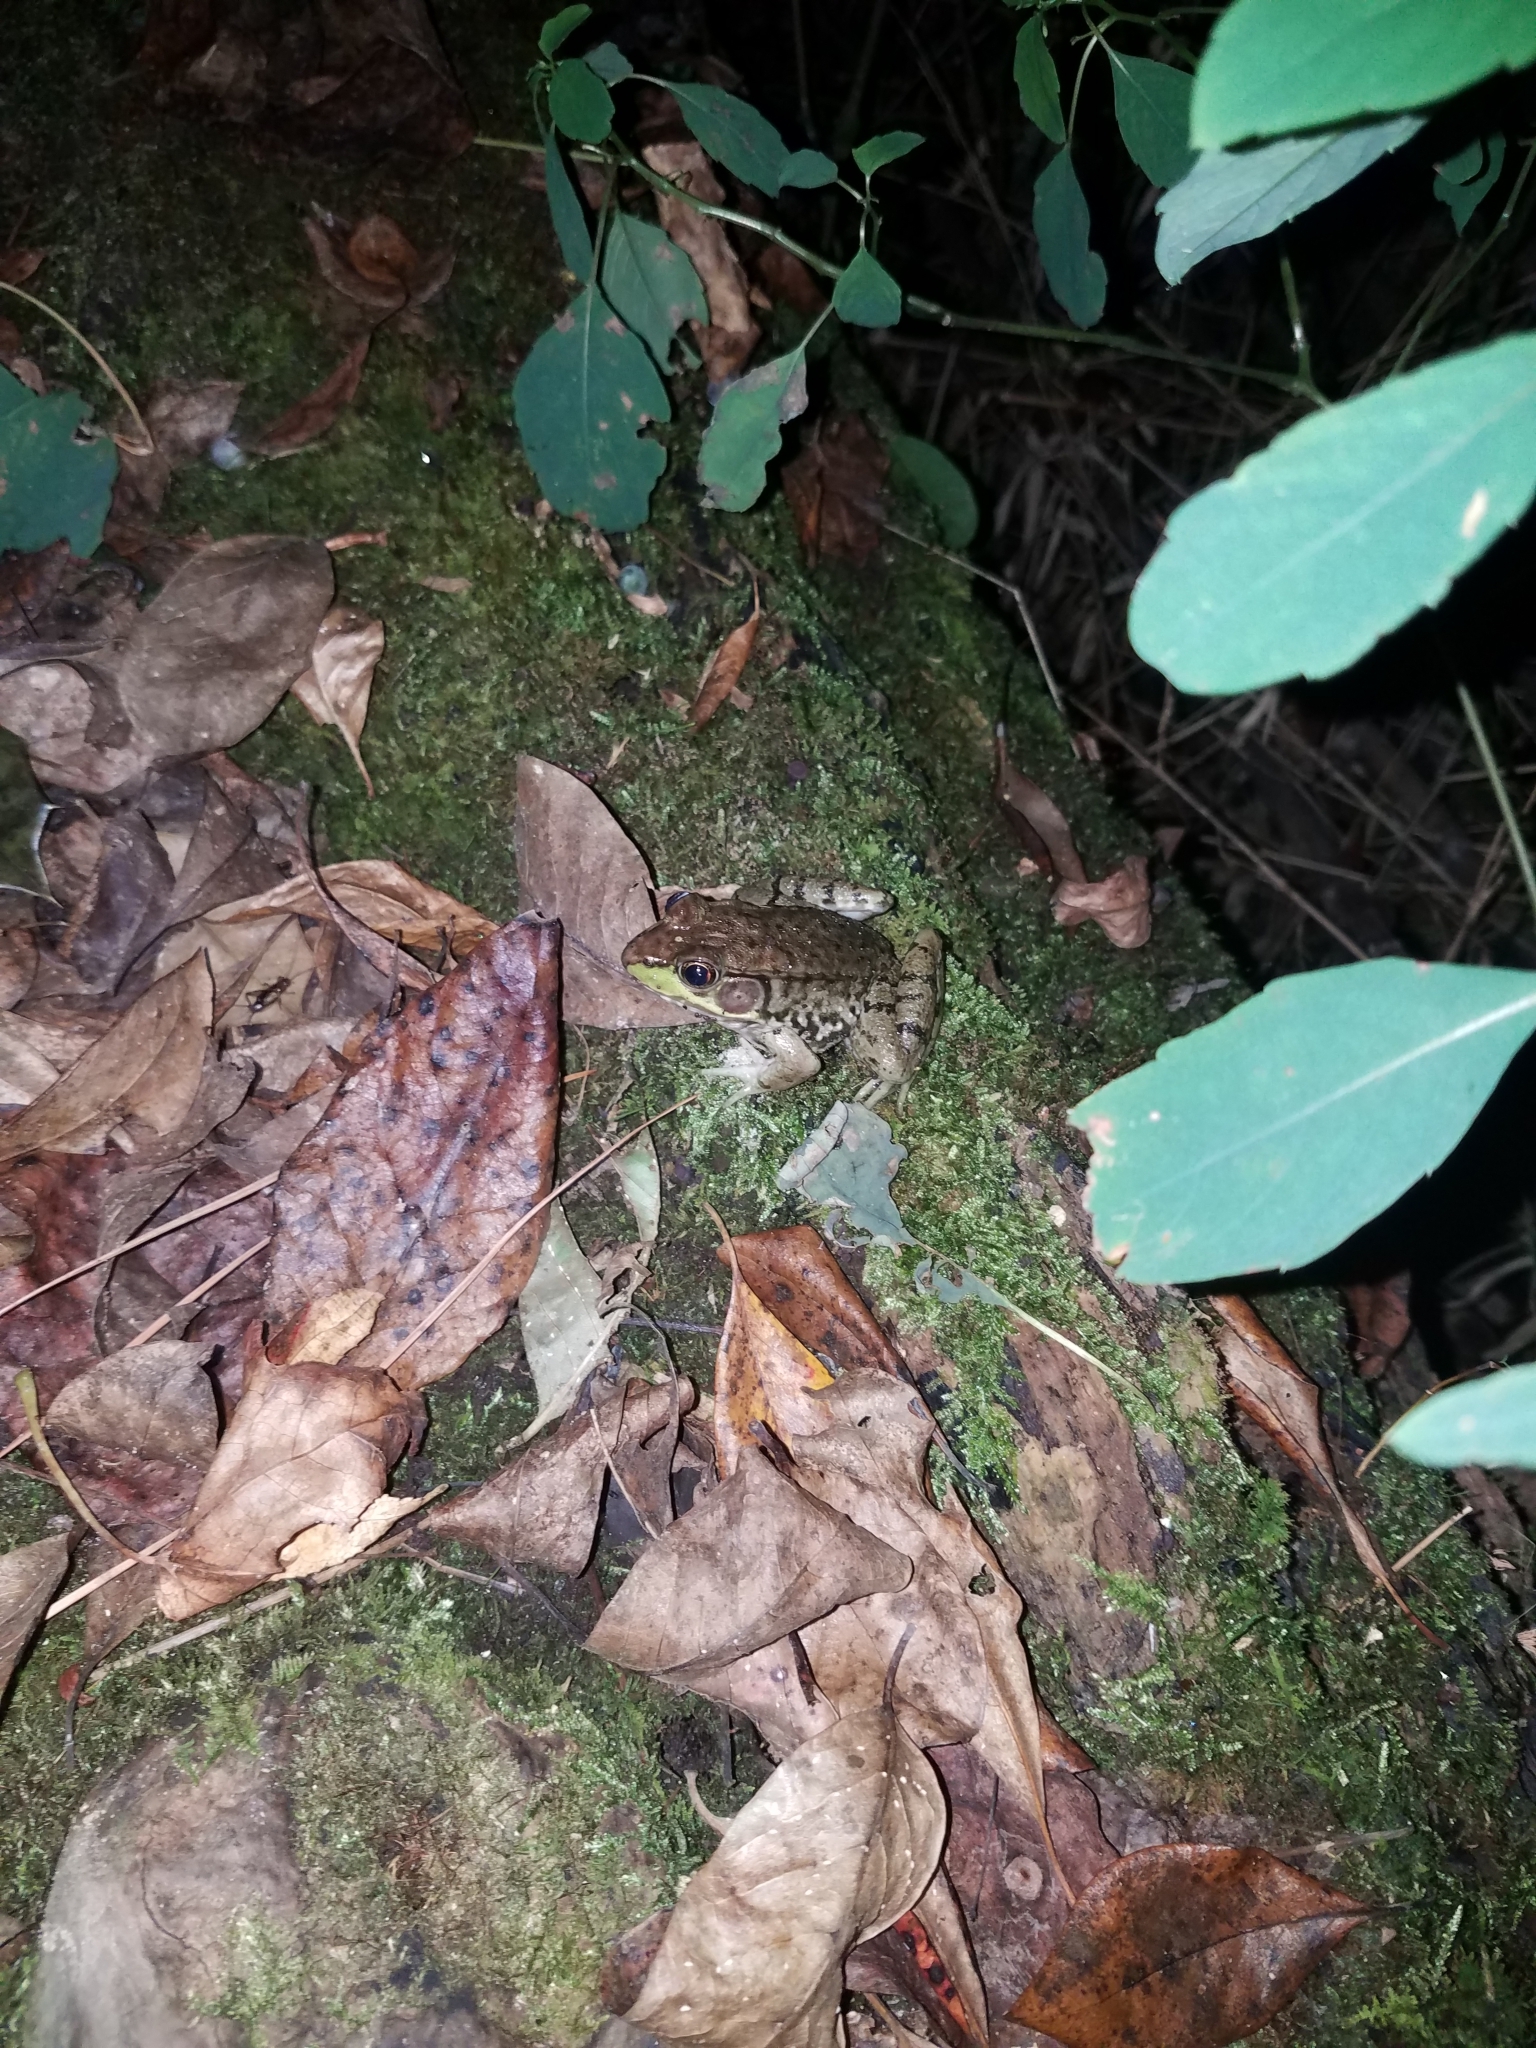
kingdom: Animalia
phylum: Chordata
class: Amphibia
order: Anura
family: Ranidae
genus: Lithobates
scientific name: Lithobates clamitans
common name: Green frog
